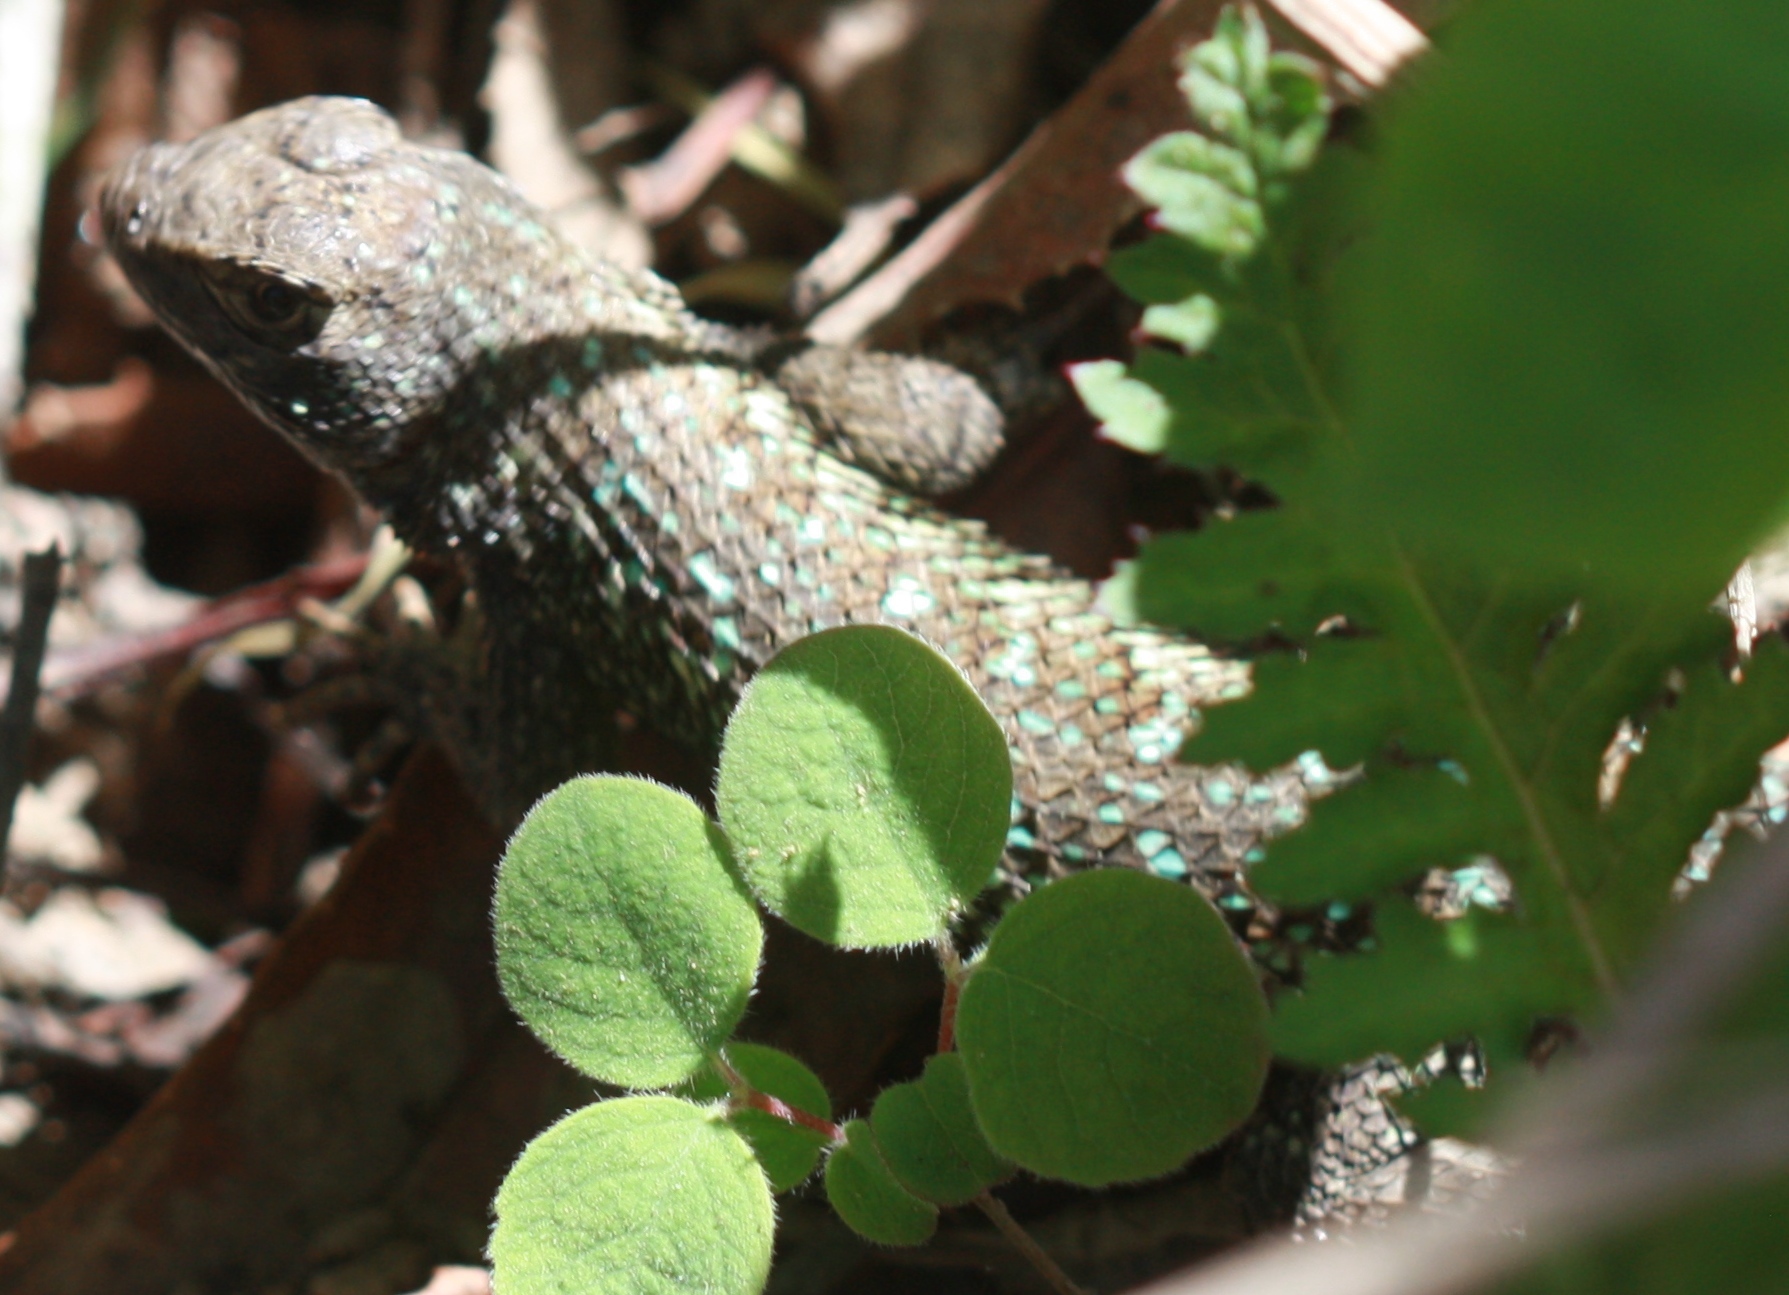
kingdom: Animalia
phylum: Chordata
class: Squamata
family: Phrynosomatidae
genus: Sceloporus
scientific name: Sceloporus occidentalis
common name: Western fence lizard
